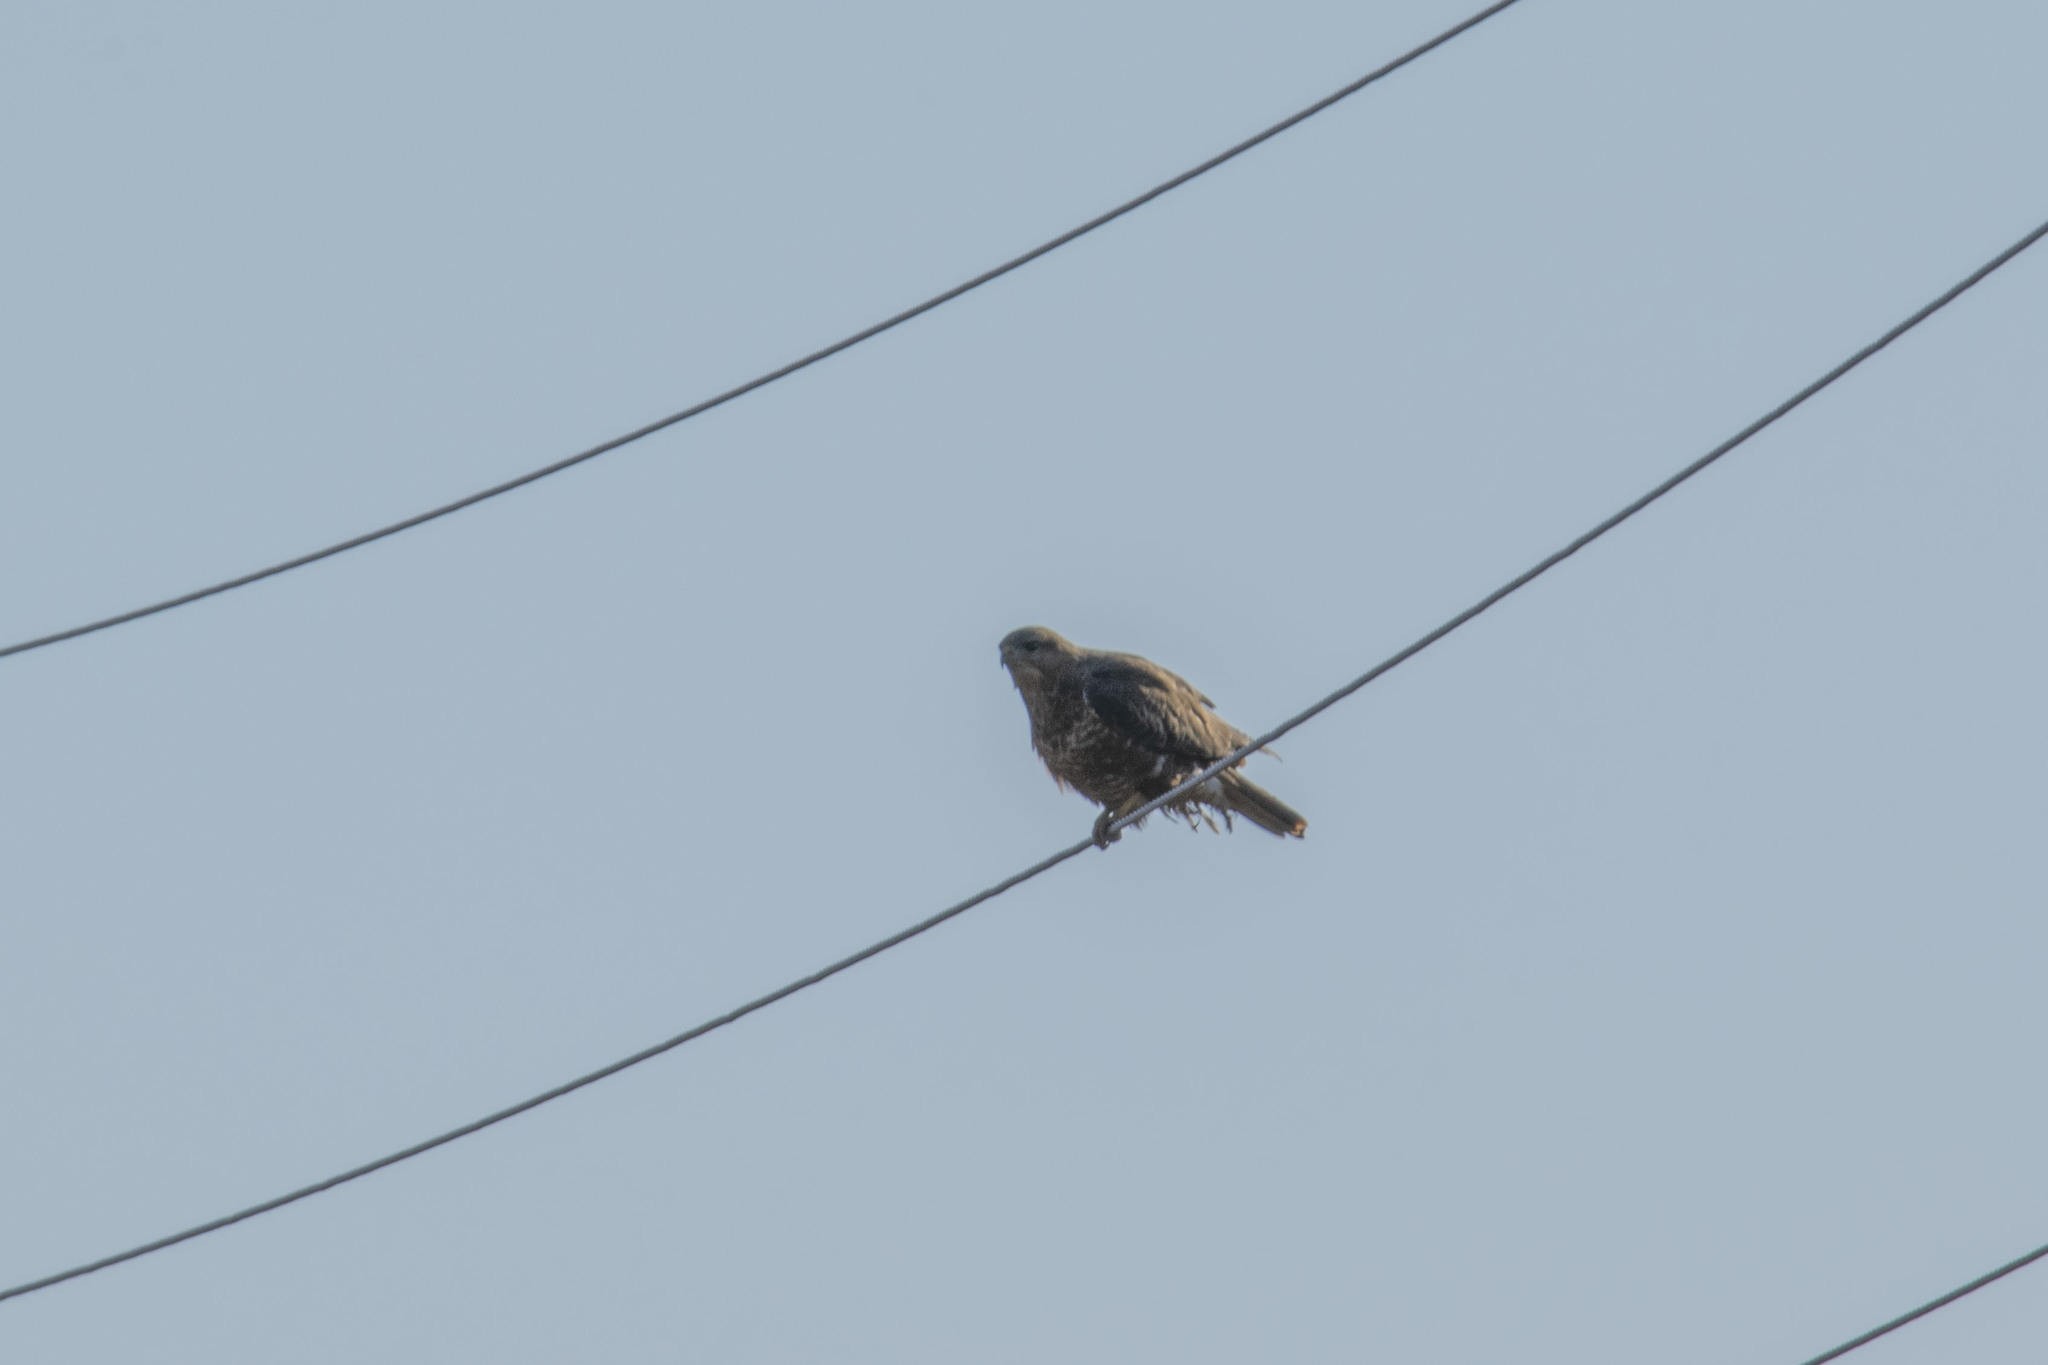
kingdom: Animalia
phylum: Chordata
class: Aves
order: Accipitriformes
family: Accipitridae
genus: Buteo
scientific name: Buteo buteo
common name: Common buzzard
